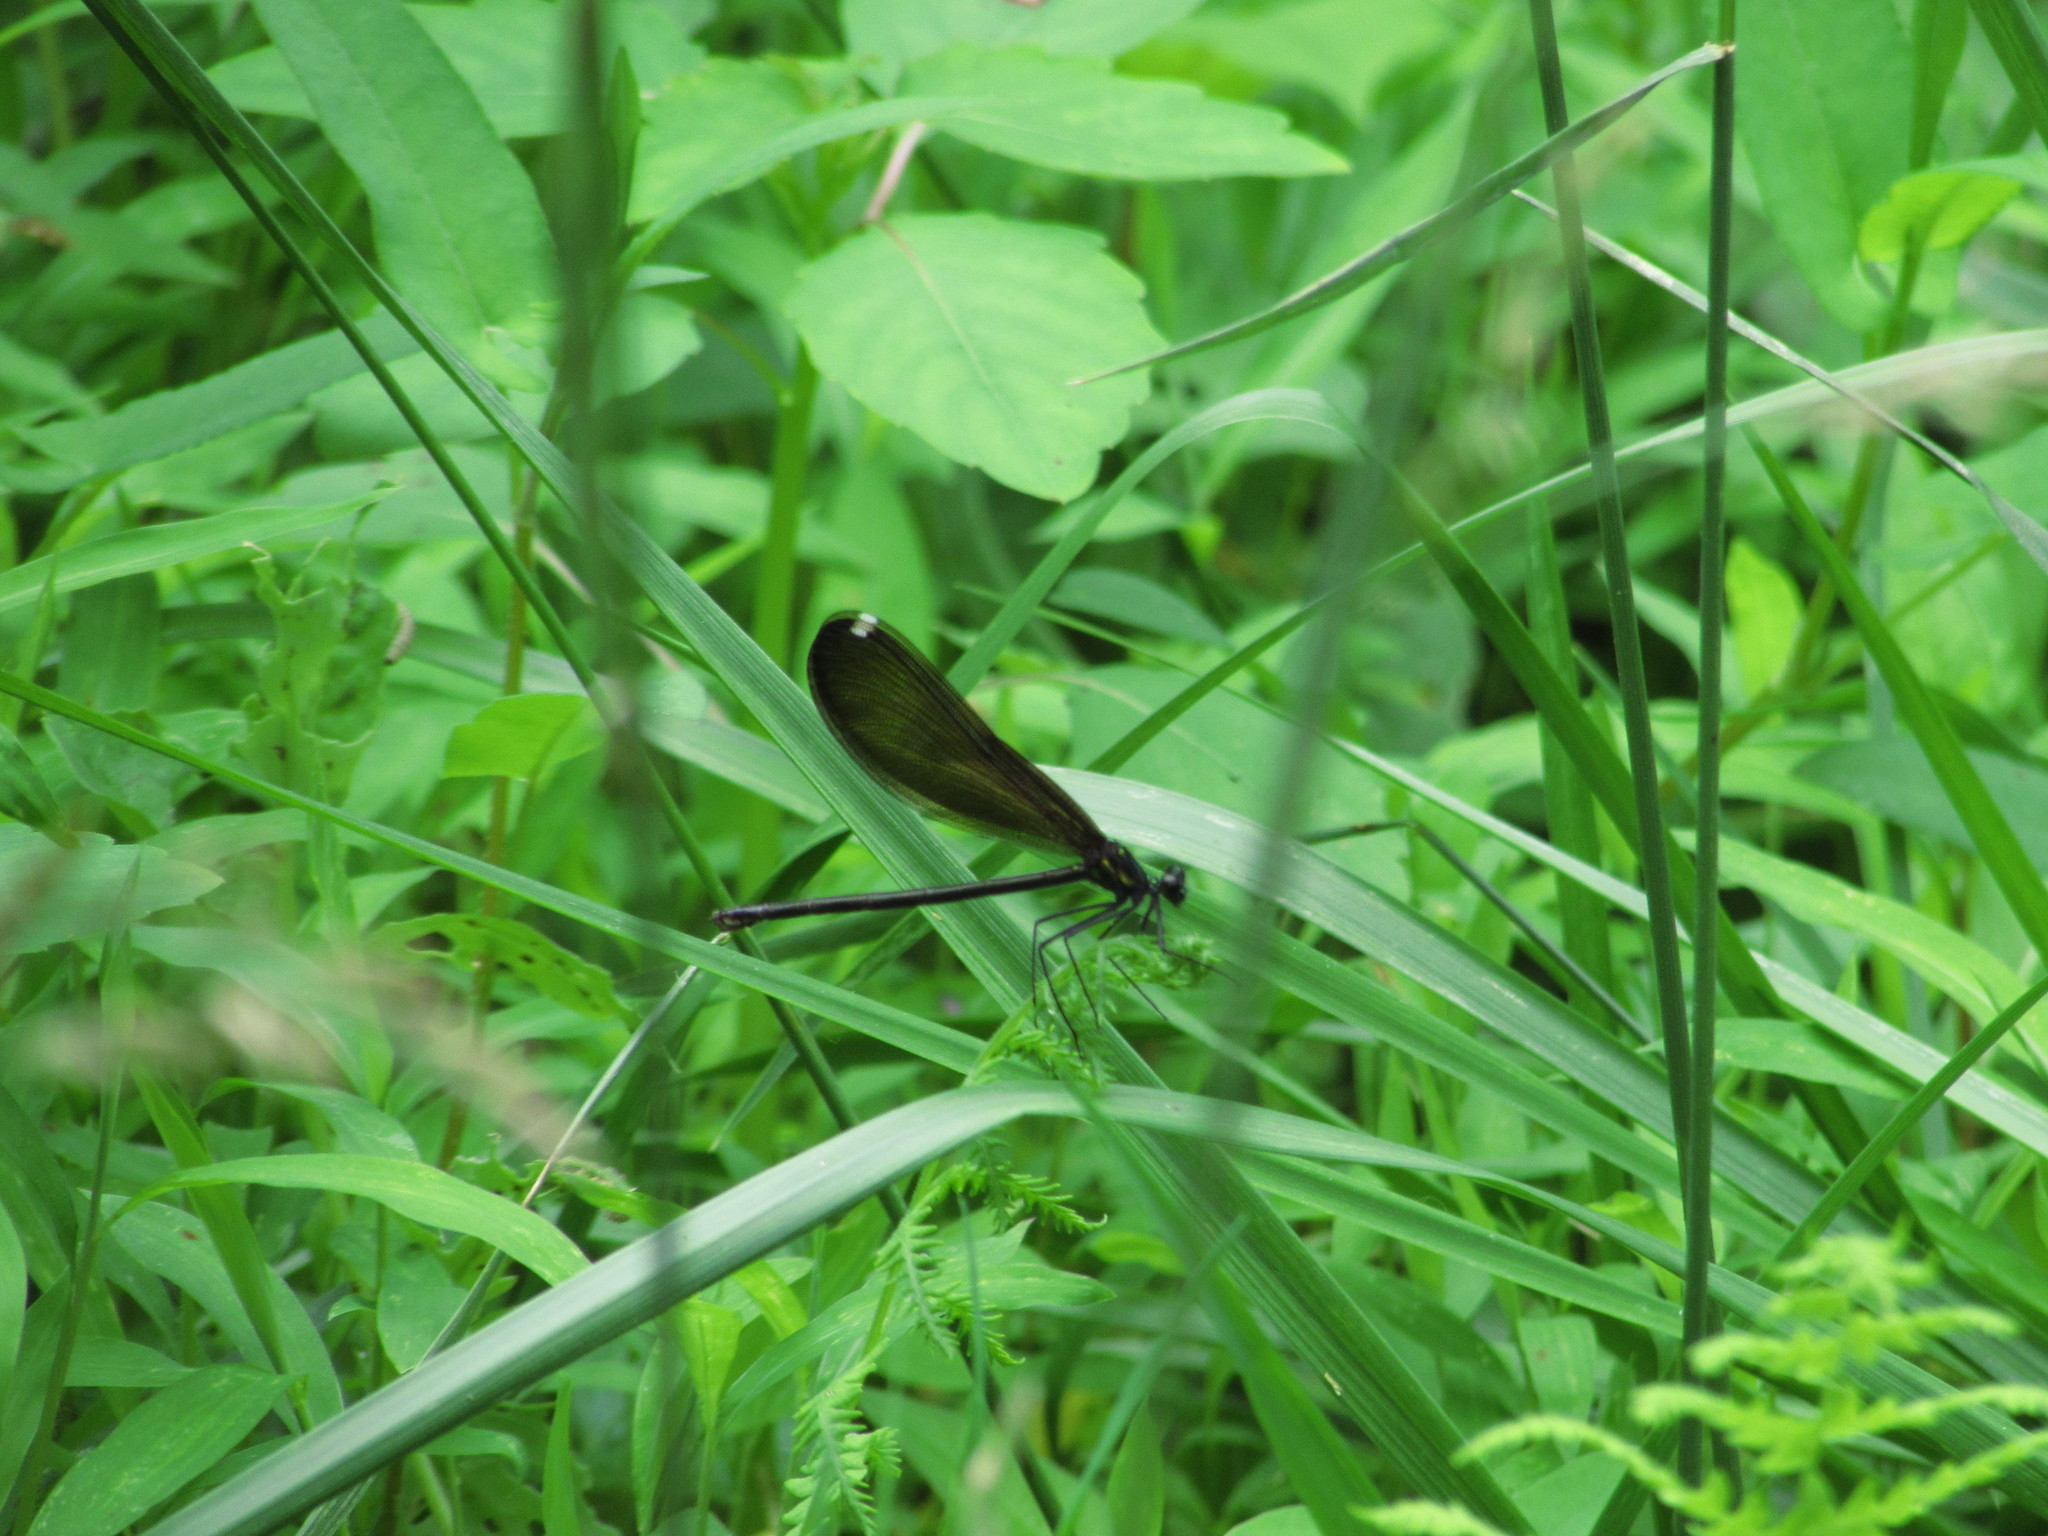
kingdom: Animalia
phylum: Arthropoda
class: Insecta
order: Odonata
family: Calopterygidae
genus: Calopteryx
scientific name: Calopteryx maculata
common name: Ebony jewelwing
